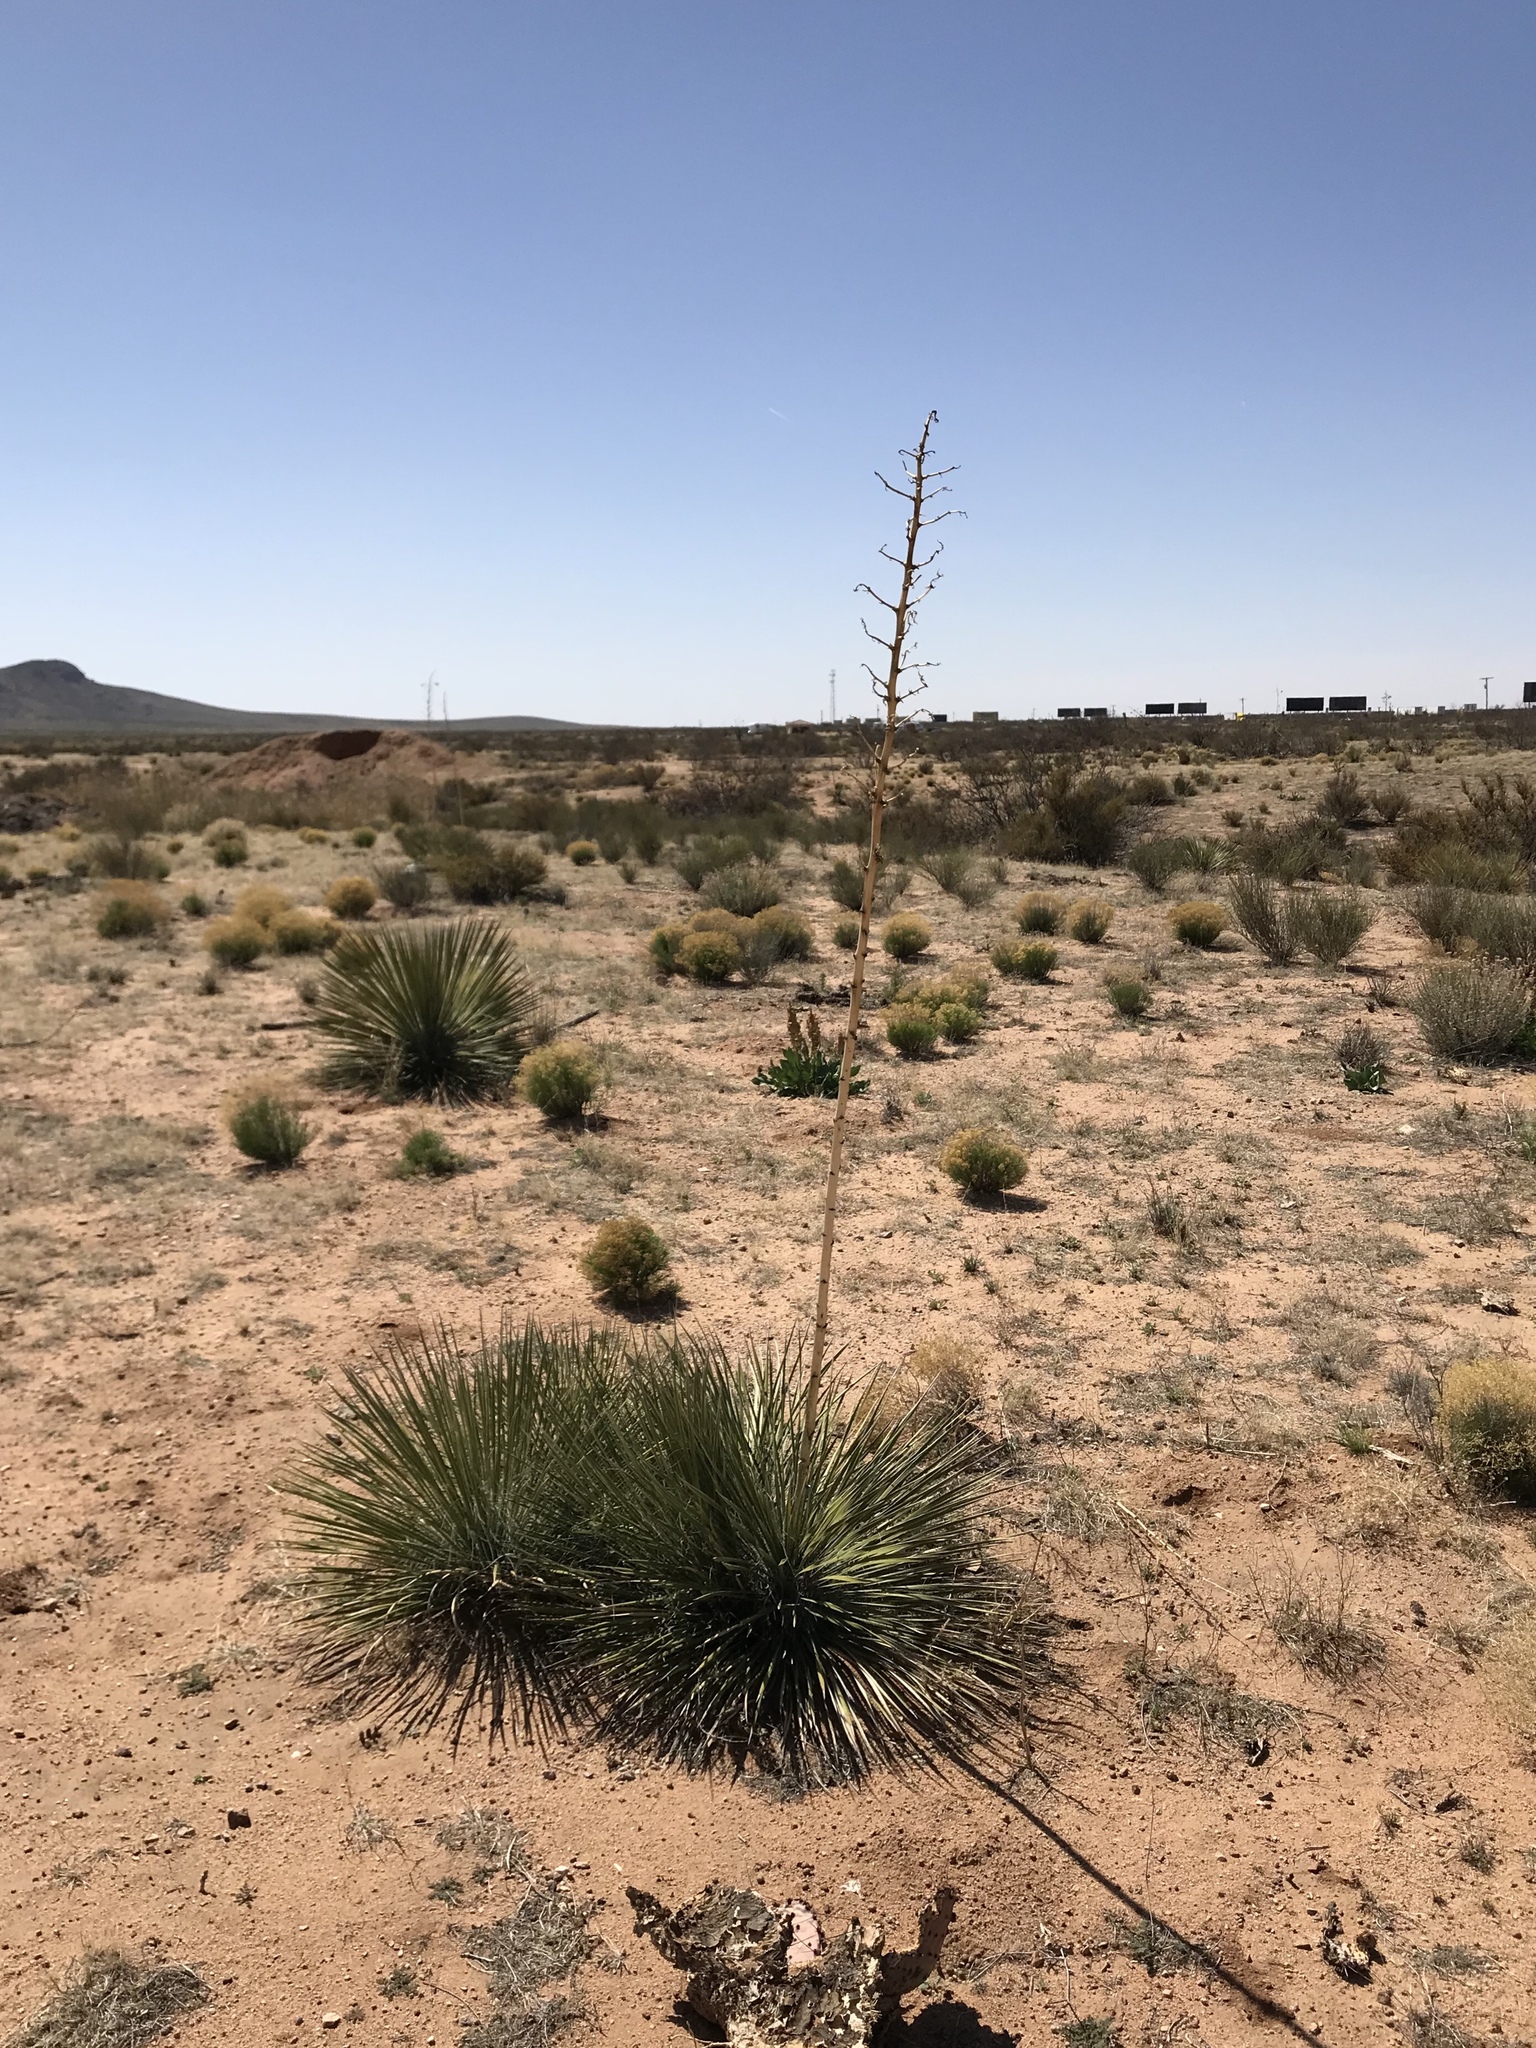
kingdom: Plantae
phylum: Tracheophyta
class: Liliopsida
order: Asparagales
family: Asparagaceae
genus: Yucca
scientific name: Yucca elata
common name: Palmella
